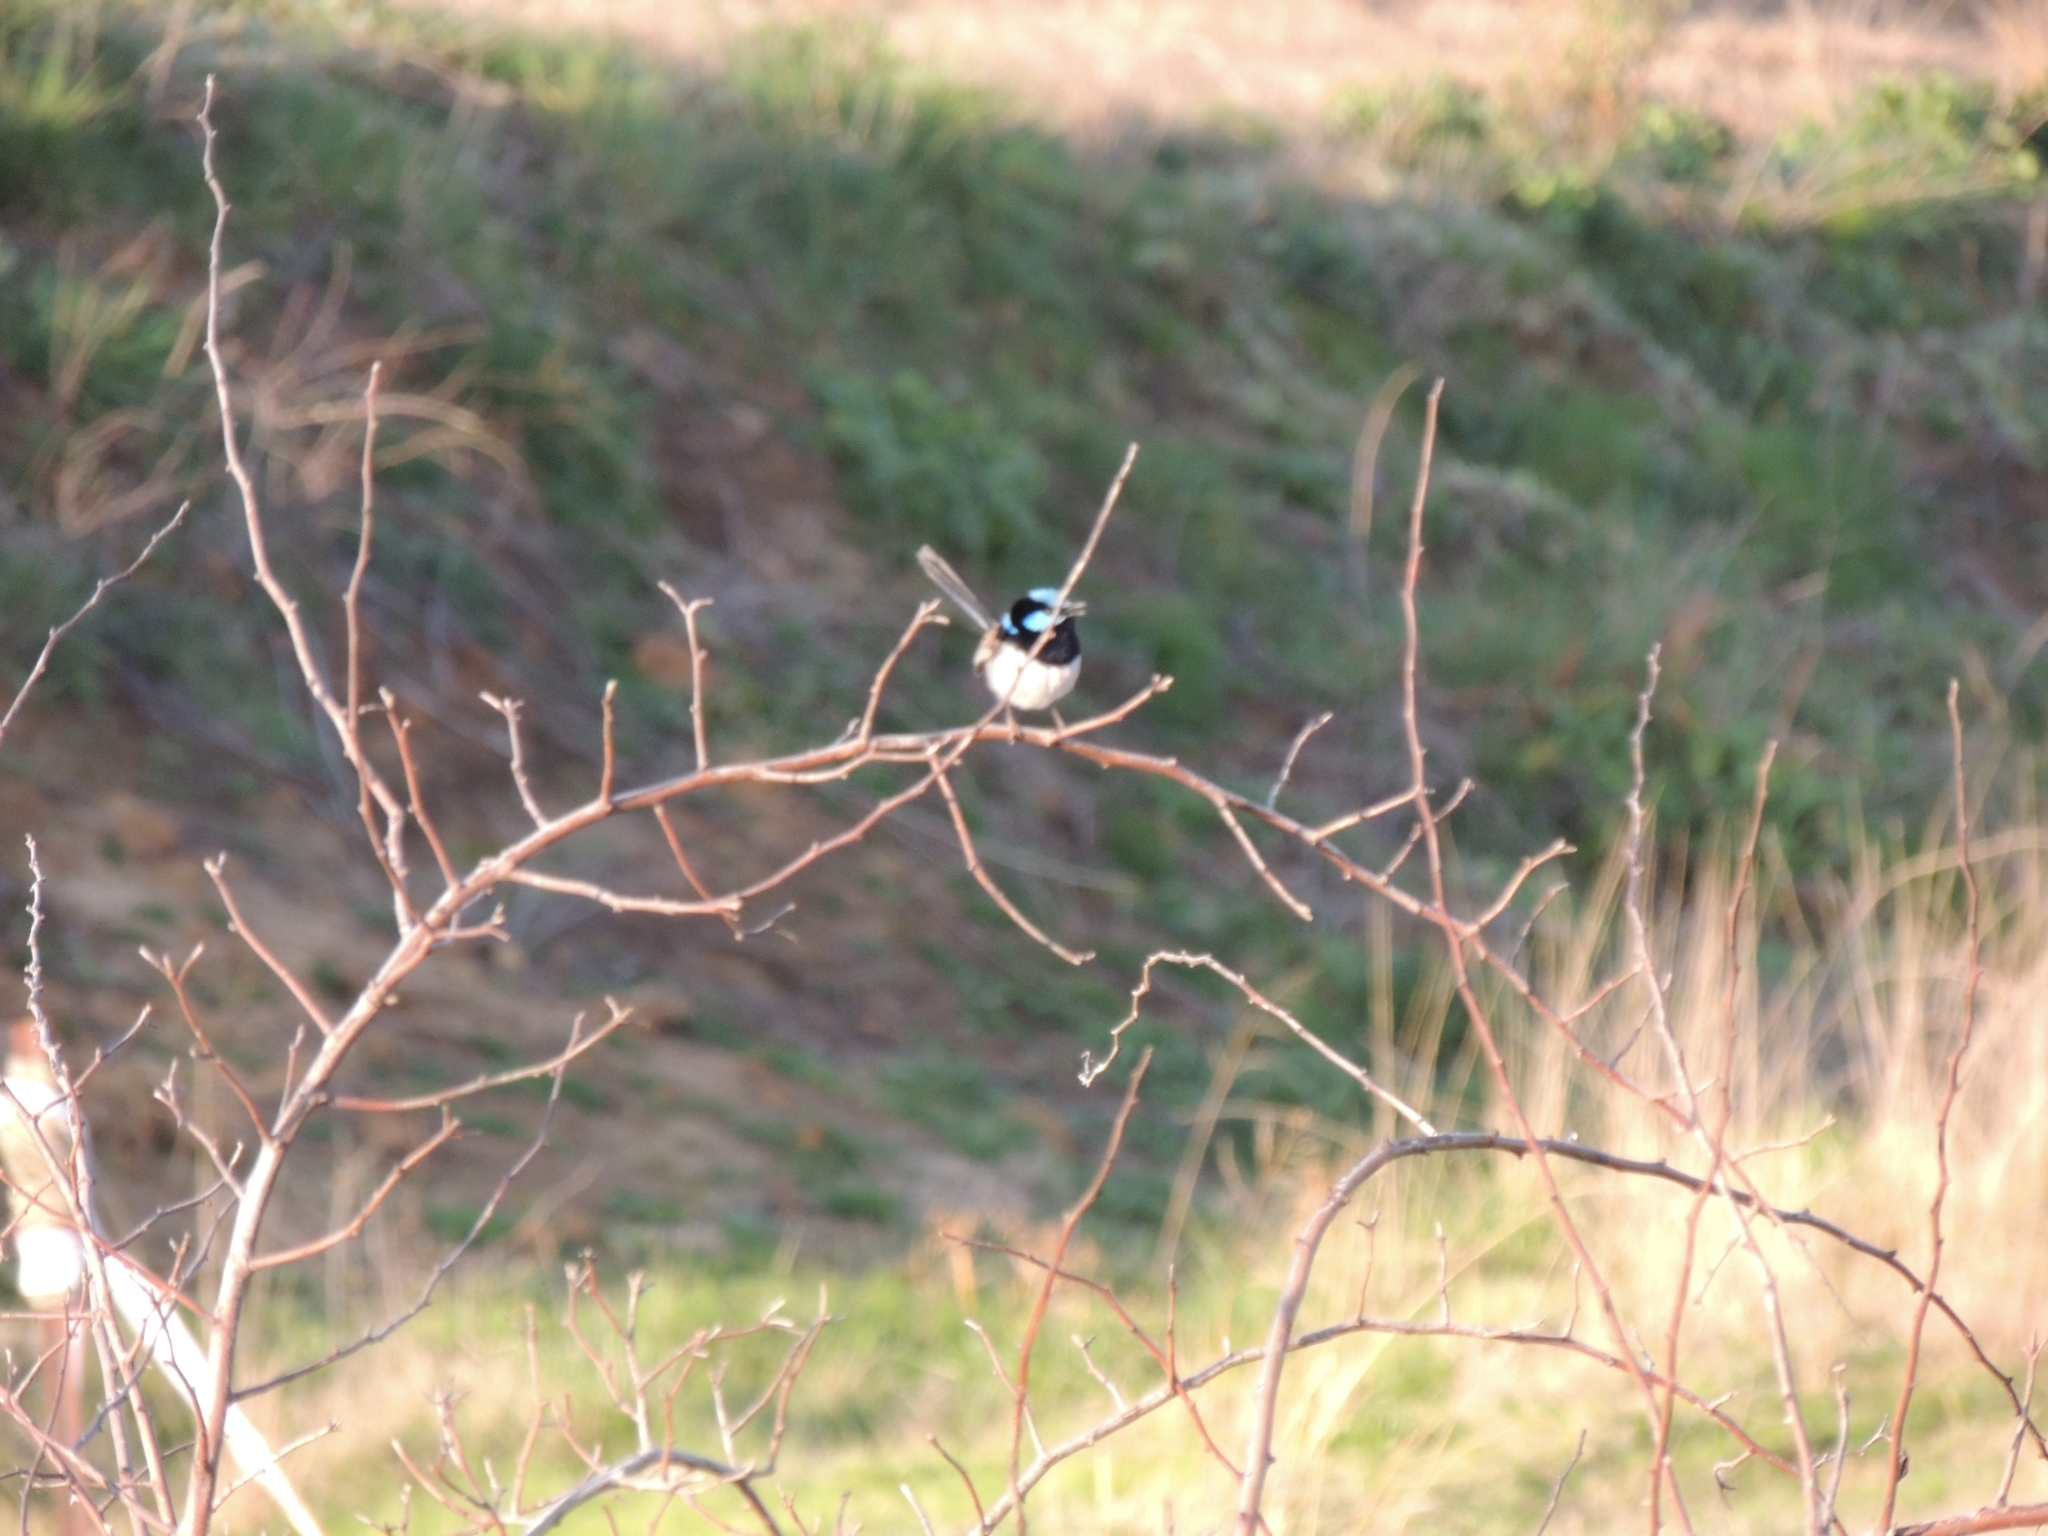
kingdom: Animalia
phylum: Chordata
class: Aves
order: Passeriformes
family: Maluridae
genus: Malurus
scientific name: Malurus cyaneus
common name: Superb fairywren
